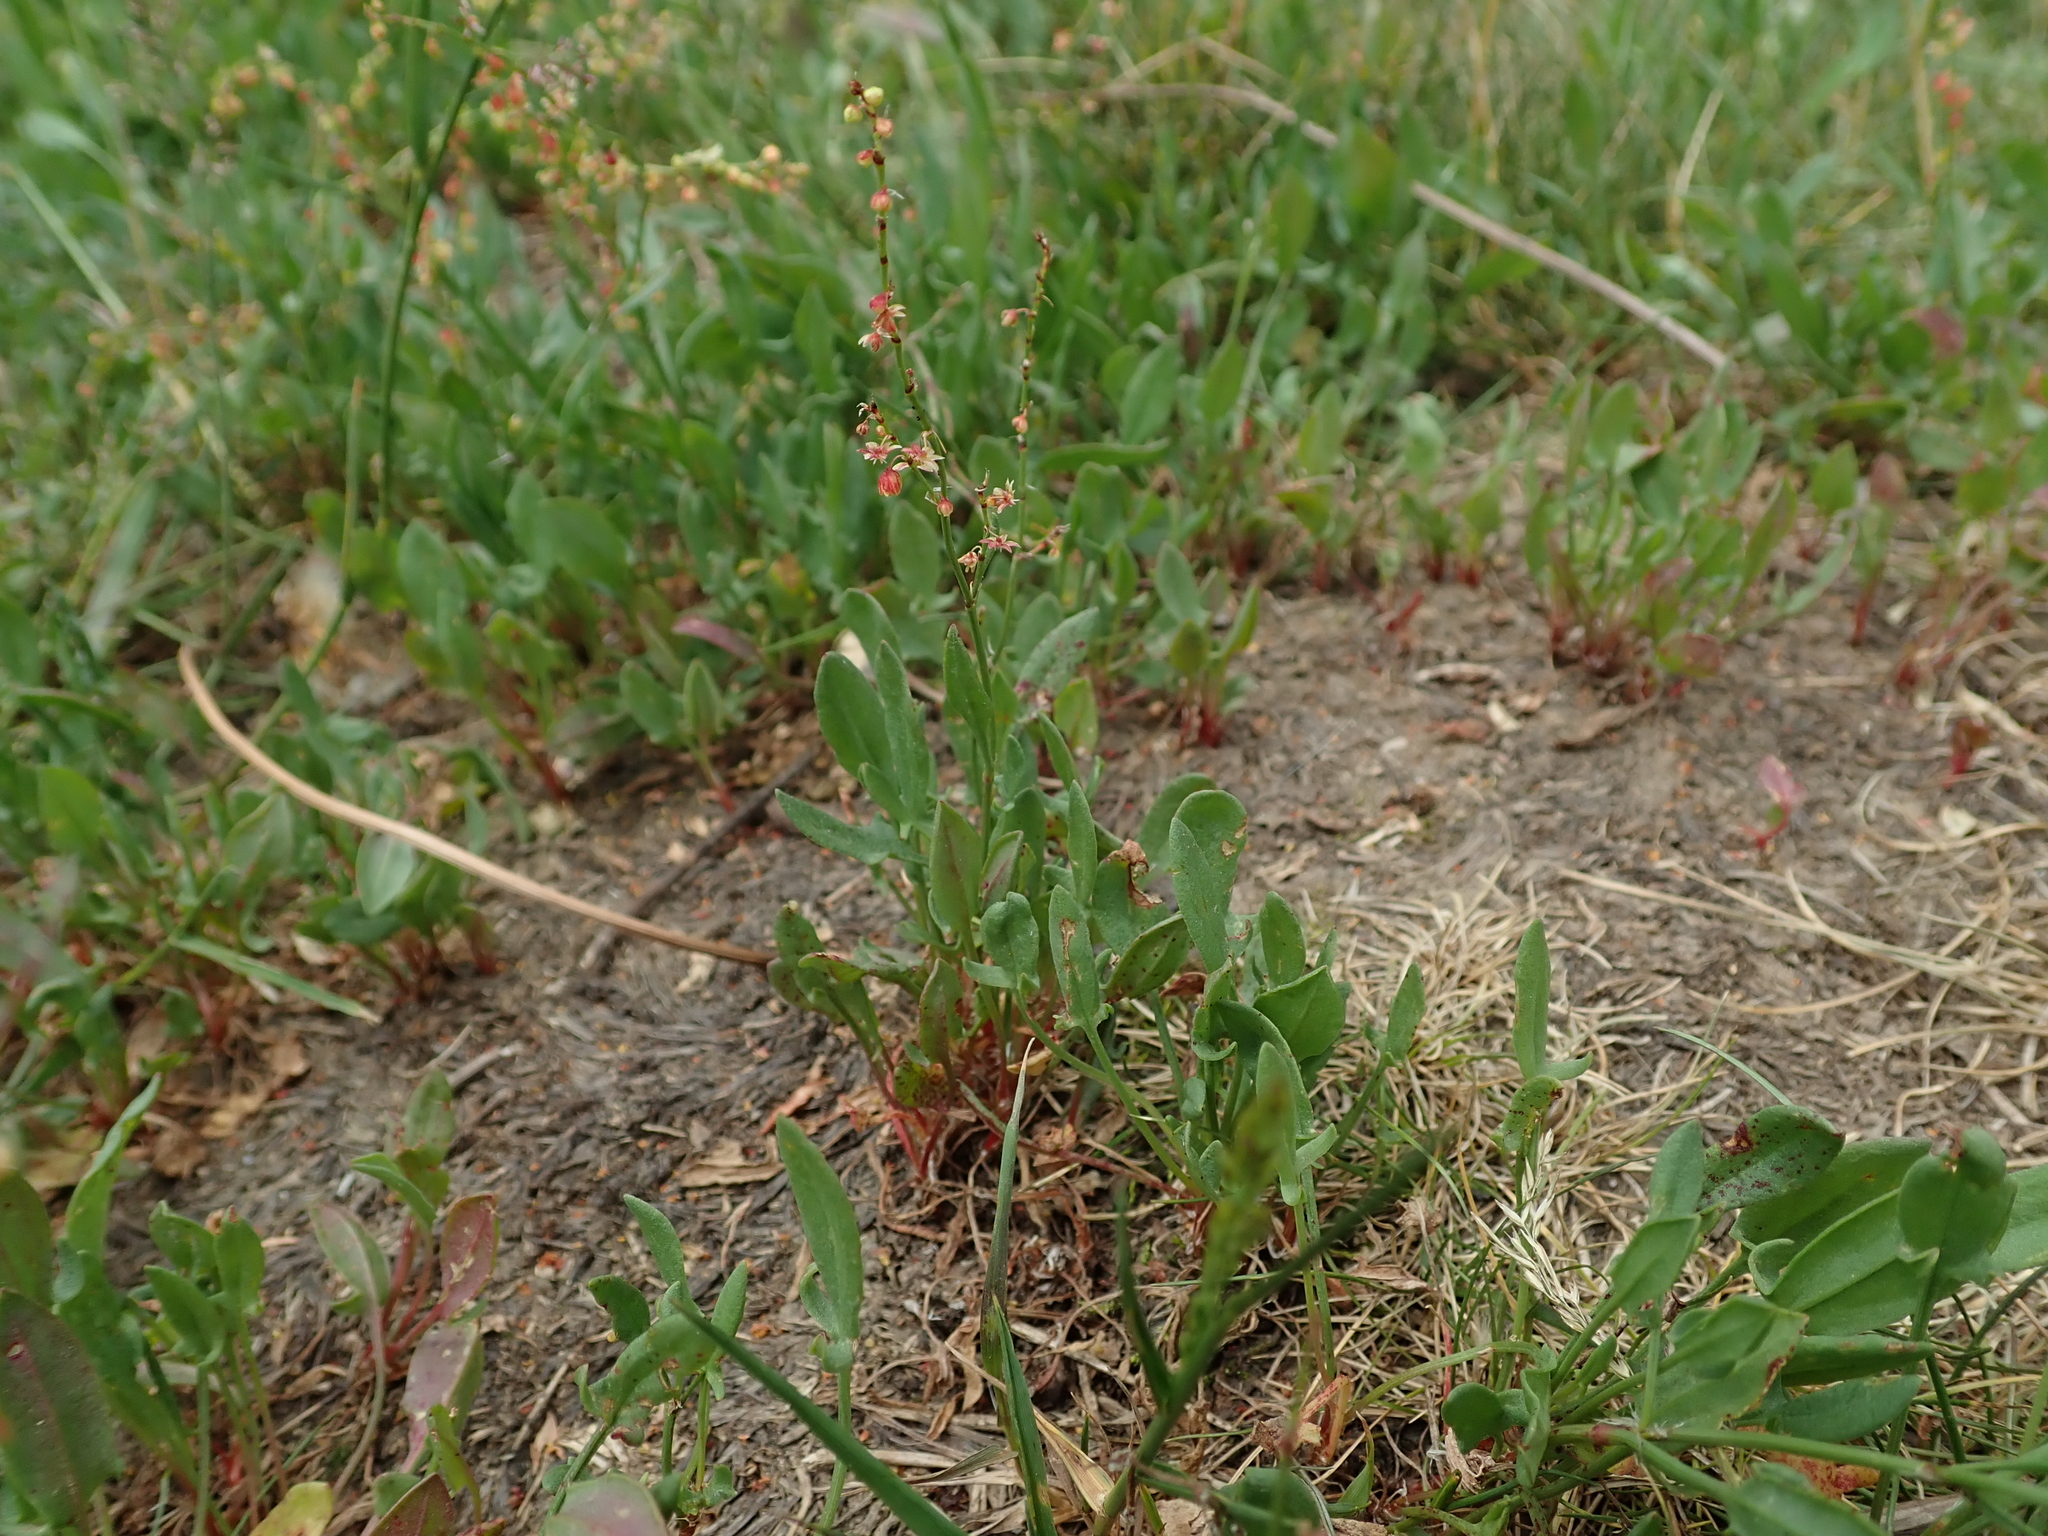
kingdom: Plantae
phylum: Tracheophyta
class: Magnoliopsida
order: Caryophyllales
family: Polygonaceae
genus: Rumex
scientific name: Rumex acetosella
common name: Common sheep sorrel
